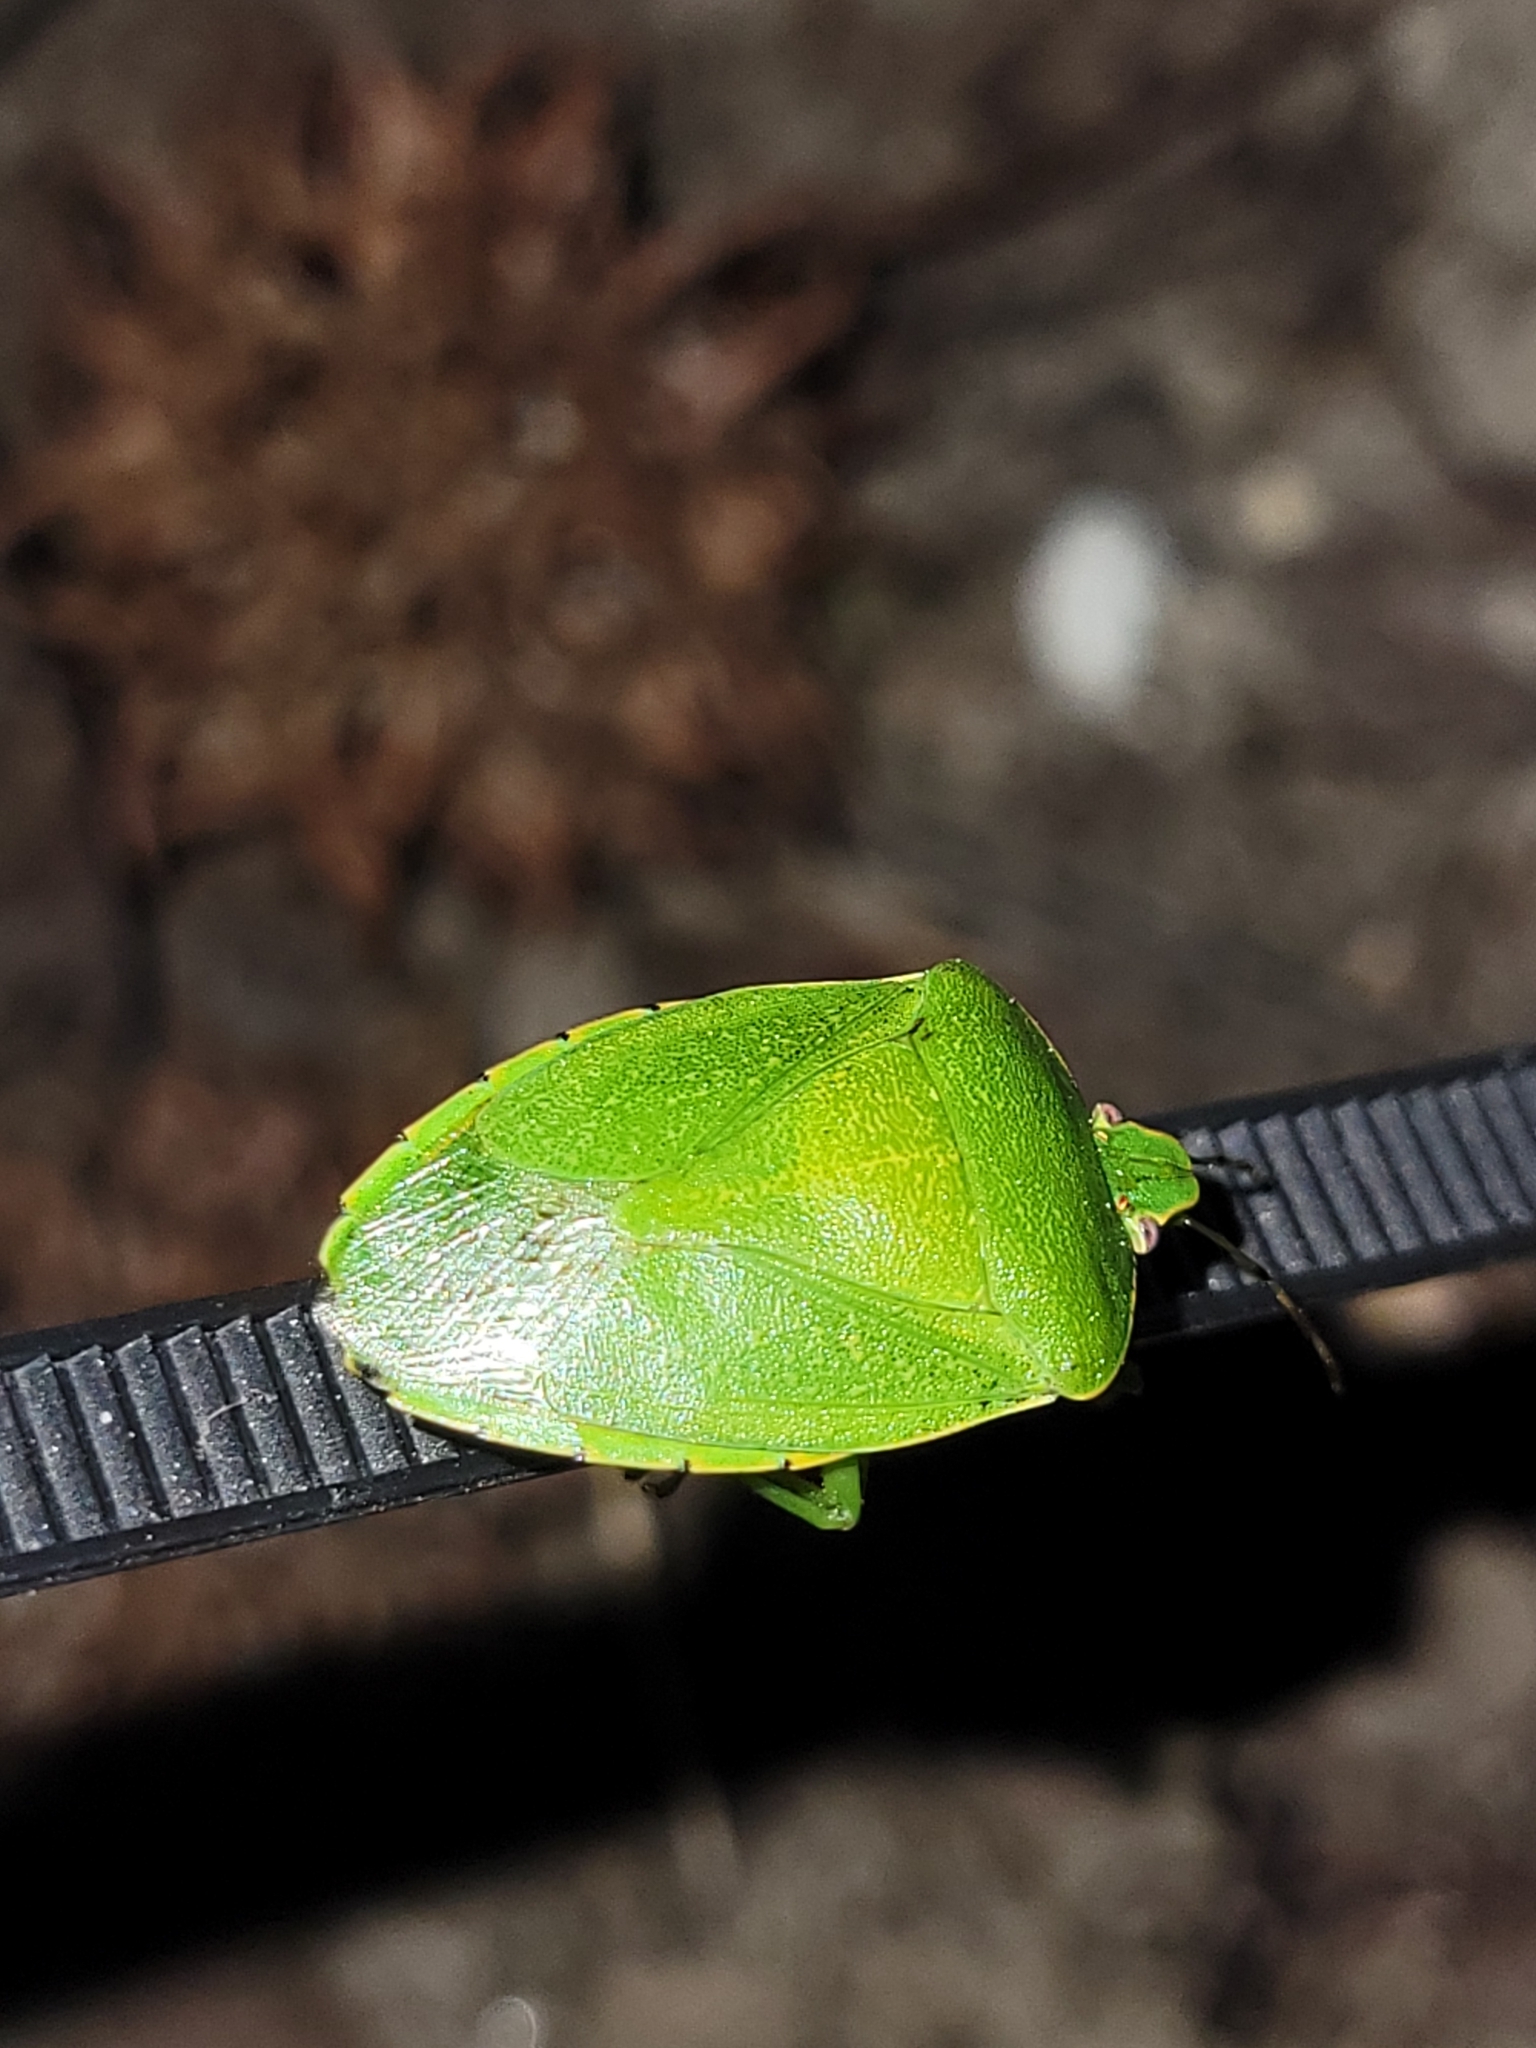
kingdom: Animalia
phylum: Arthropoda
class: Insecta
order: Hemiptera
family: Pentatomidae
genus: Chinavia
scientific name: Chinavia hilaris
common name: Green stink bug
